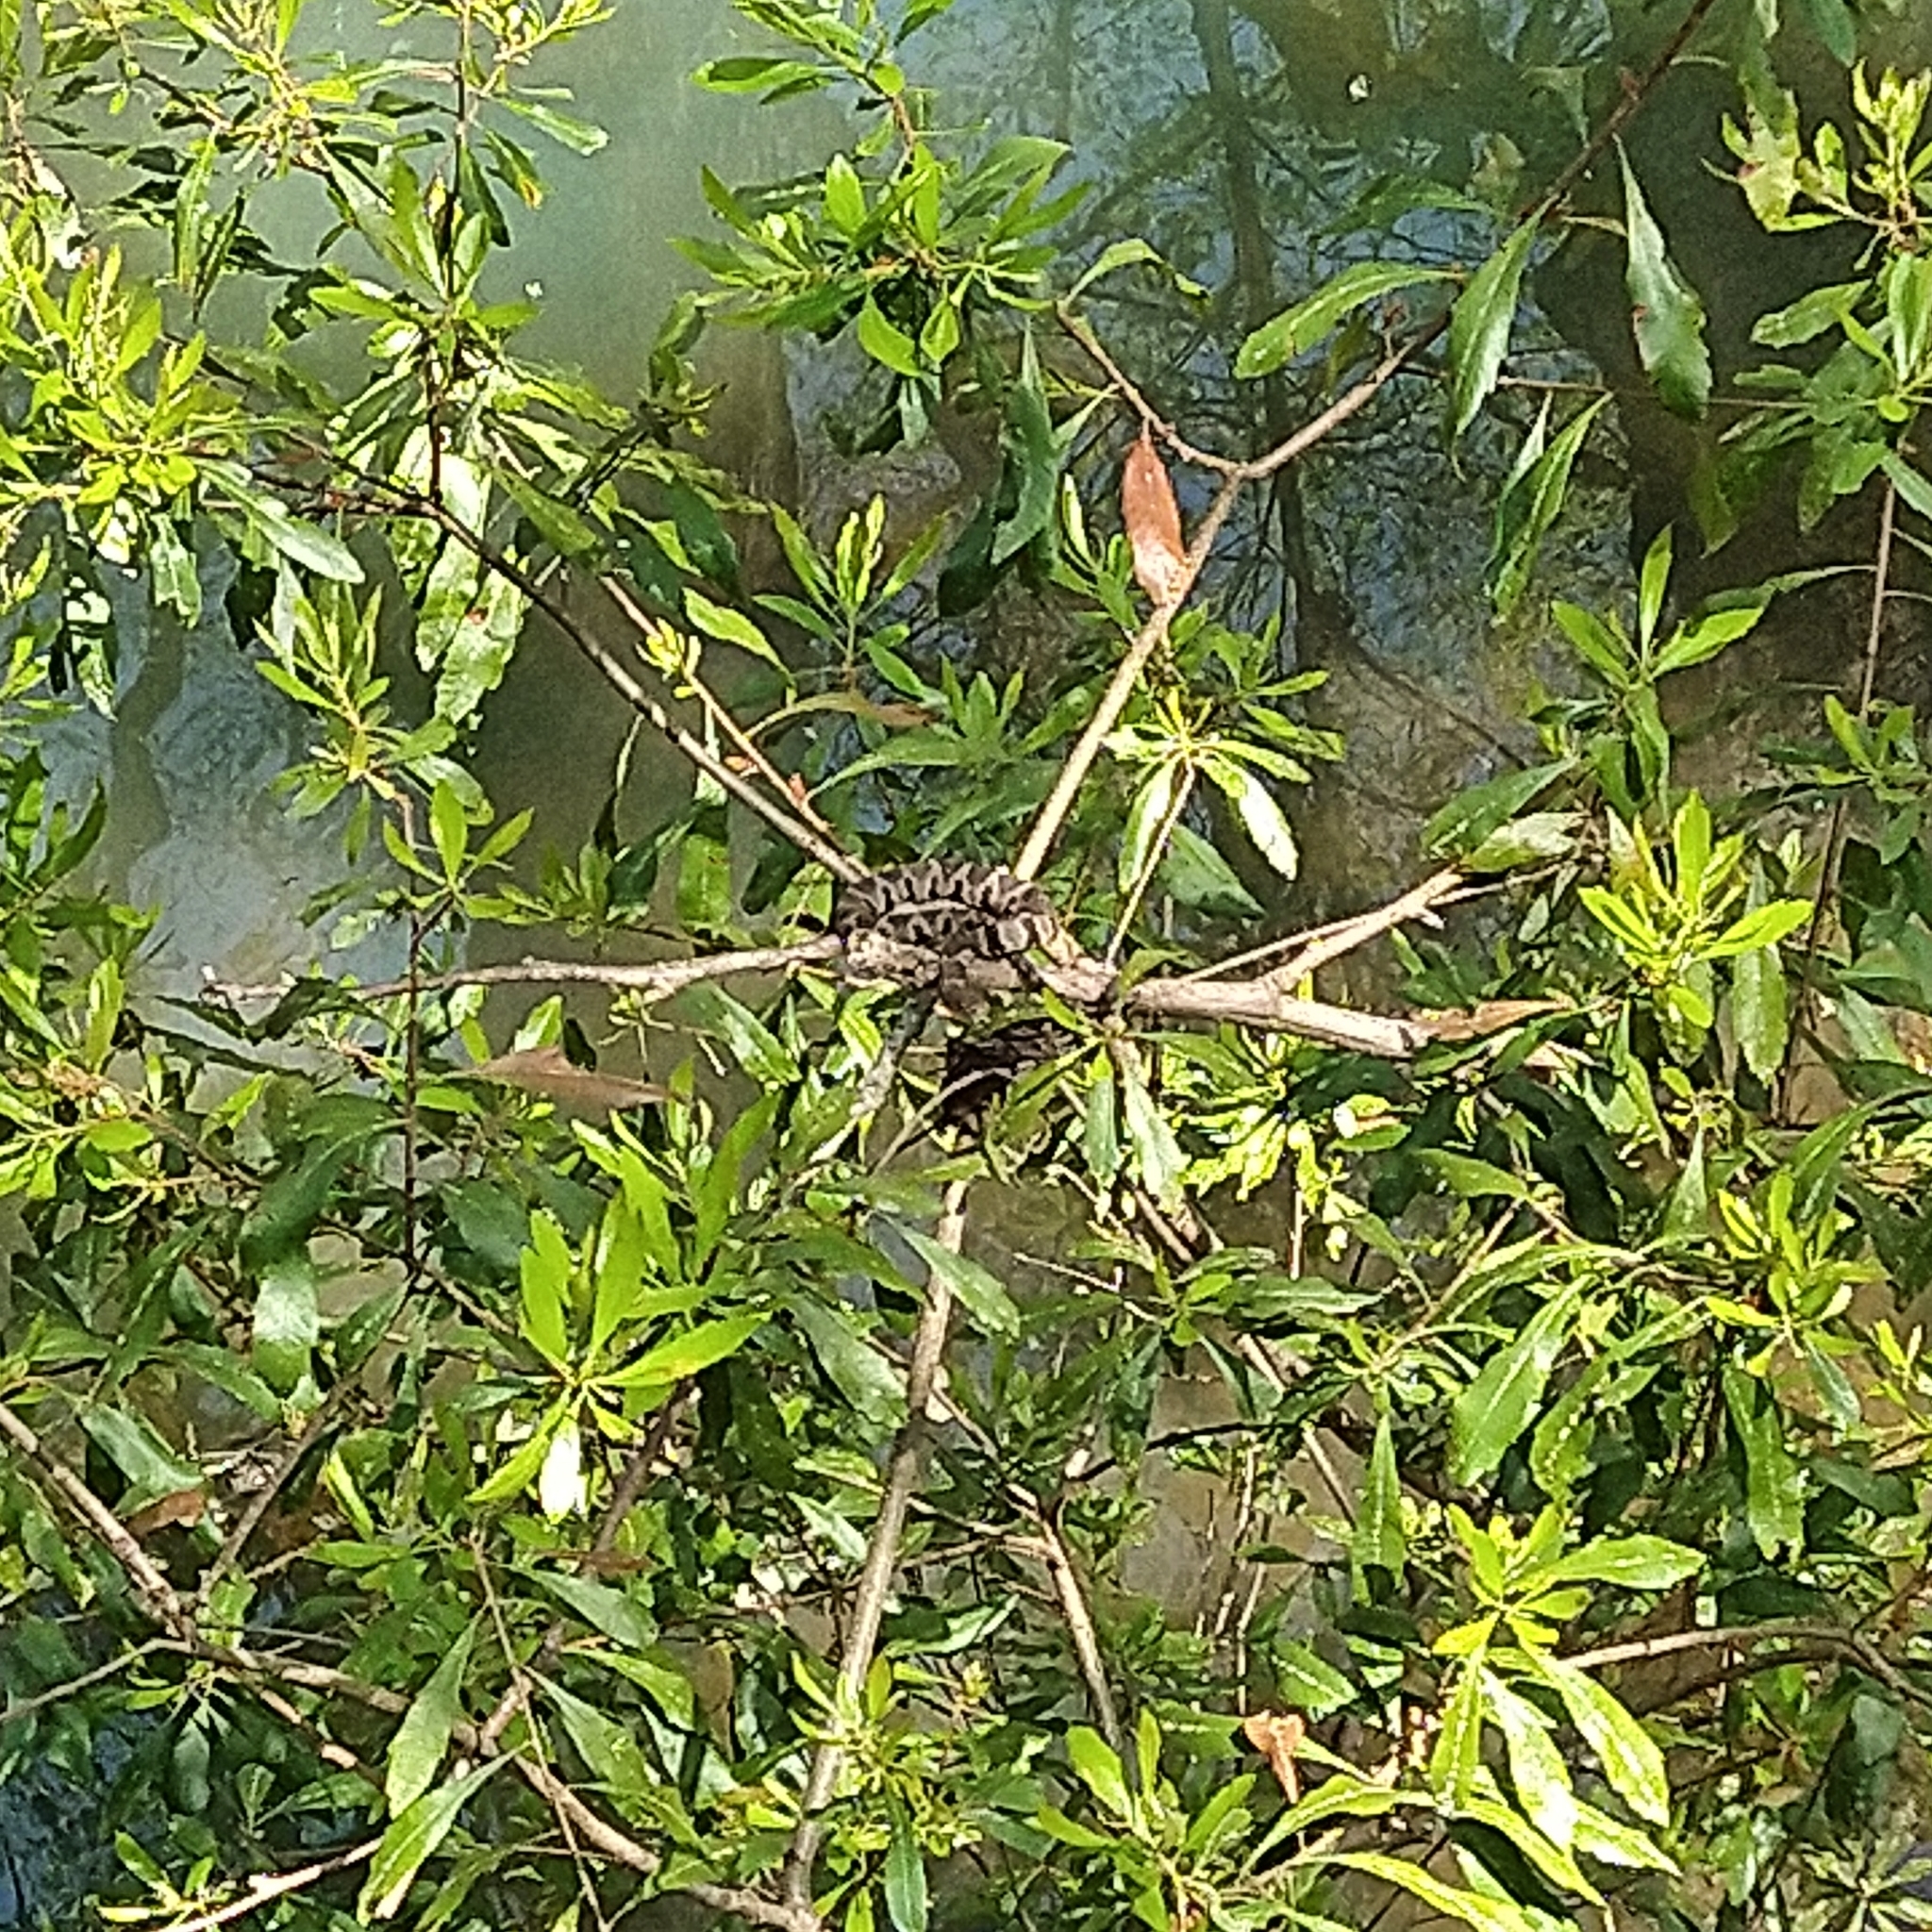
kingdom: Animalia
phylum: Chordata
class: Squamata
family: Colubridae
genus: Nerodia
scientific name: Nerodia sipedon
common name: Northern water snake
